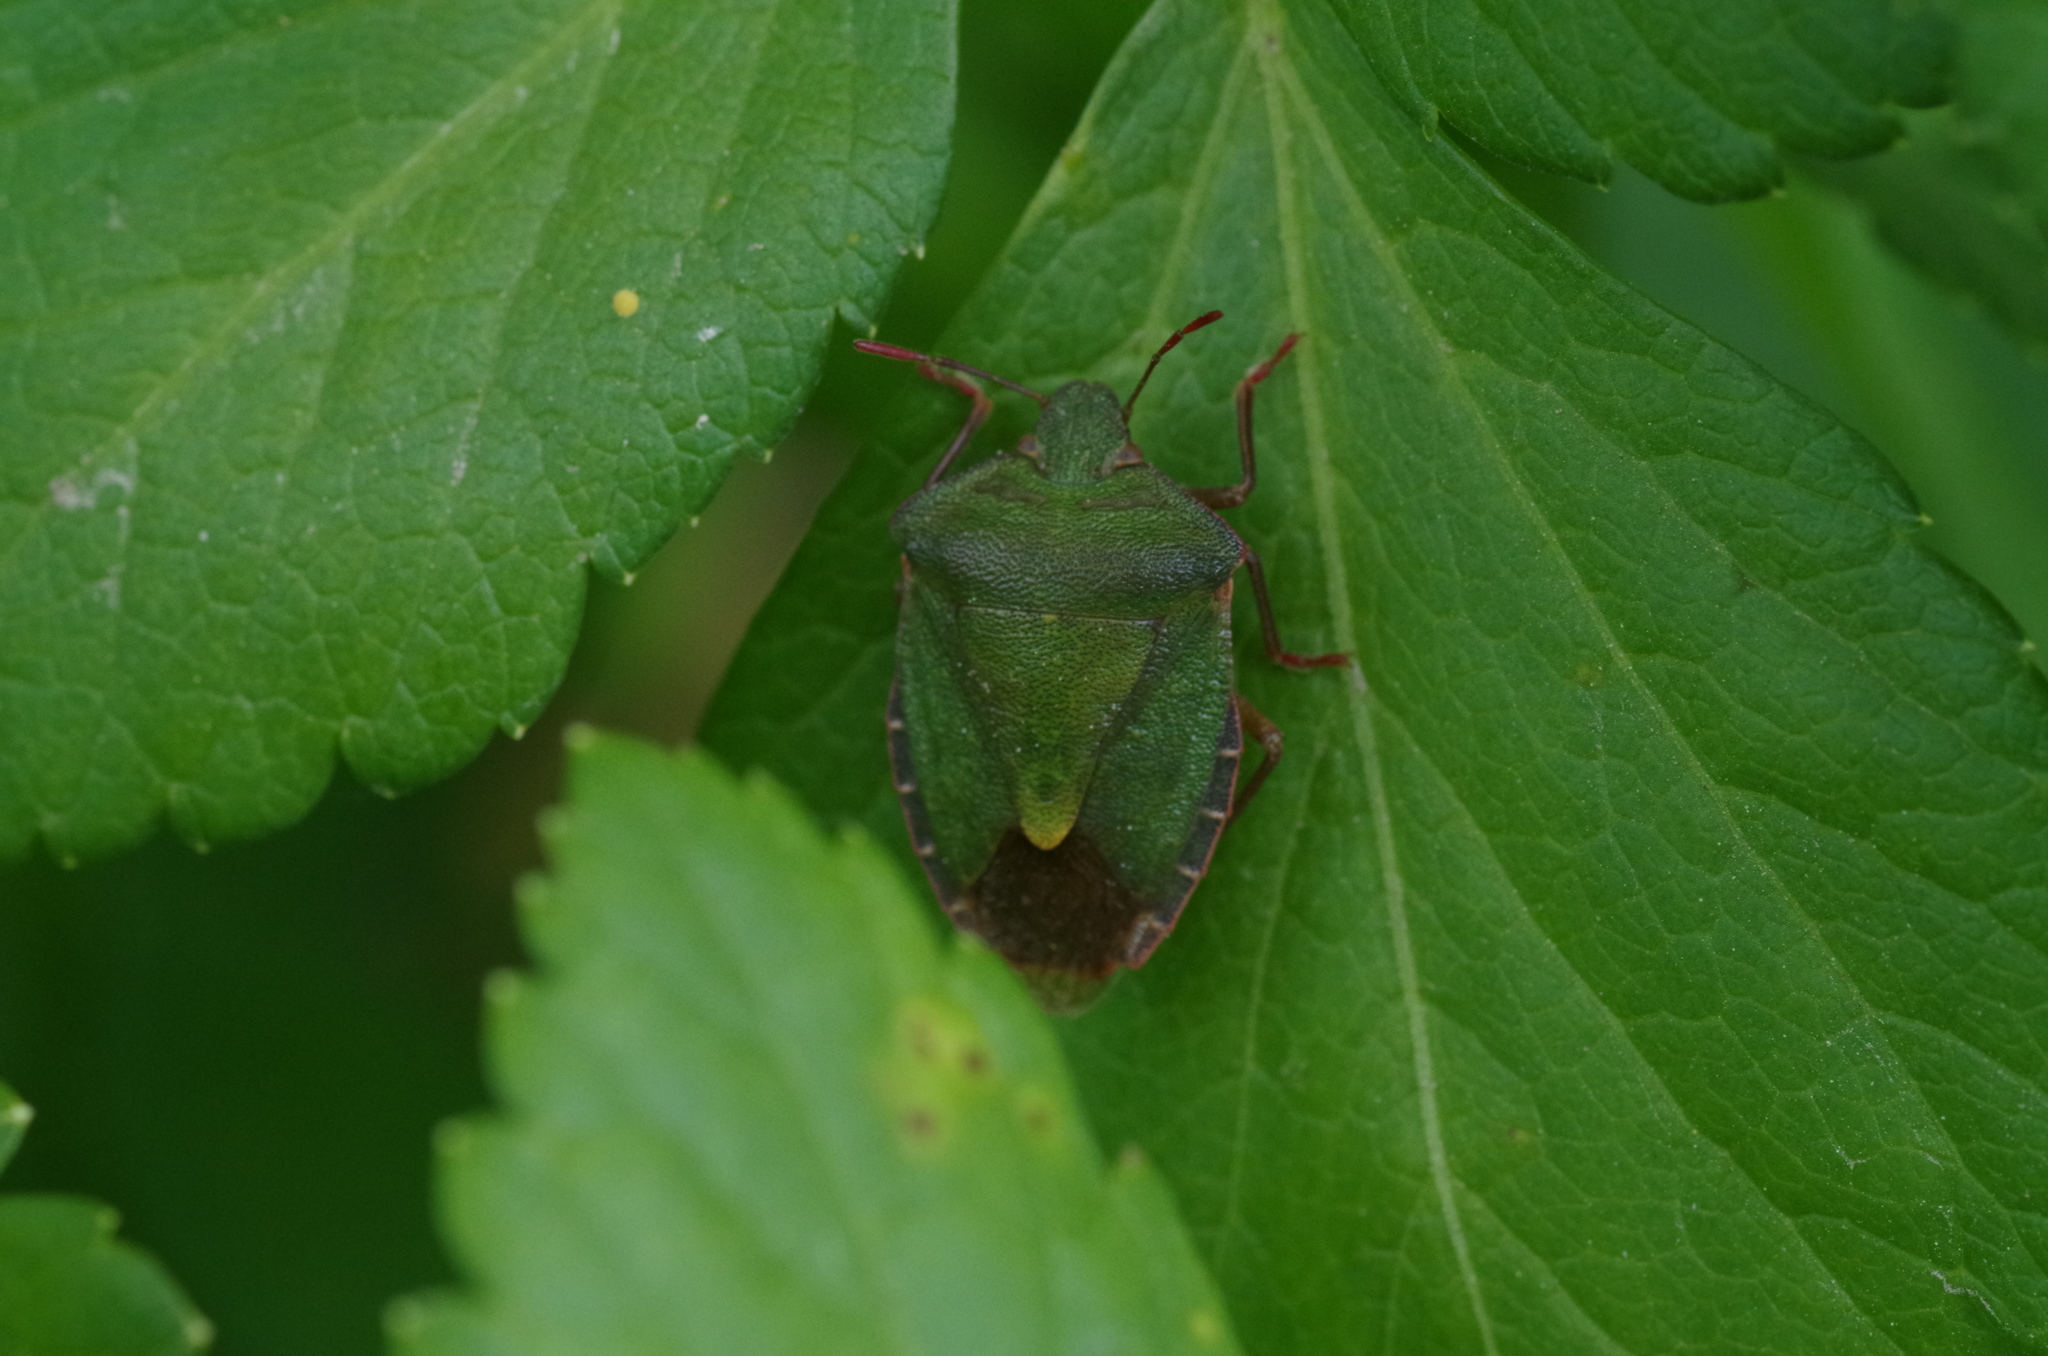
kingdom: Animalia
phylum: Arthropoda
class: Insecta
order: Hemiptera
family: Pentatomidae
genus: Palomena
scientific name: Palomena prasina
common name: Green shieldbug
